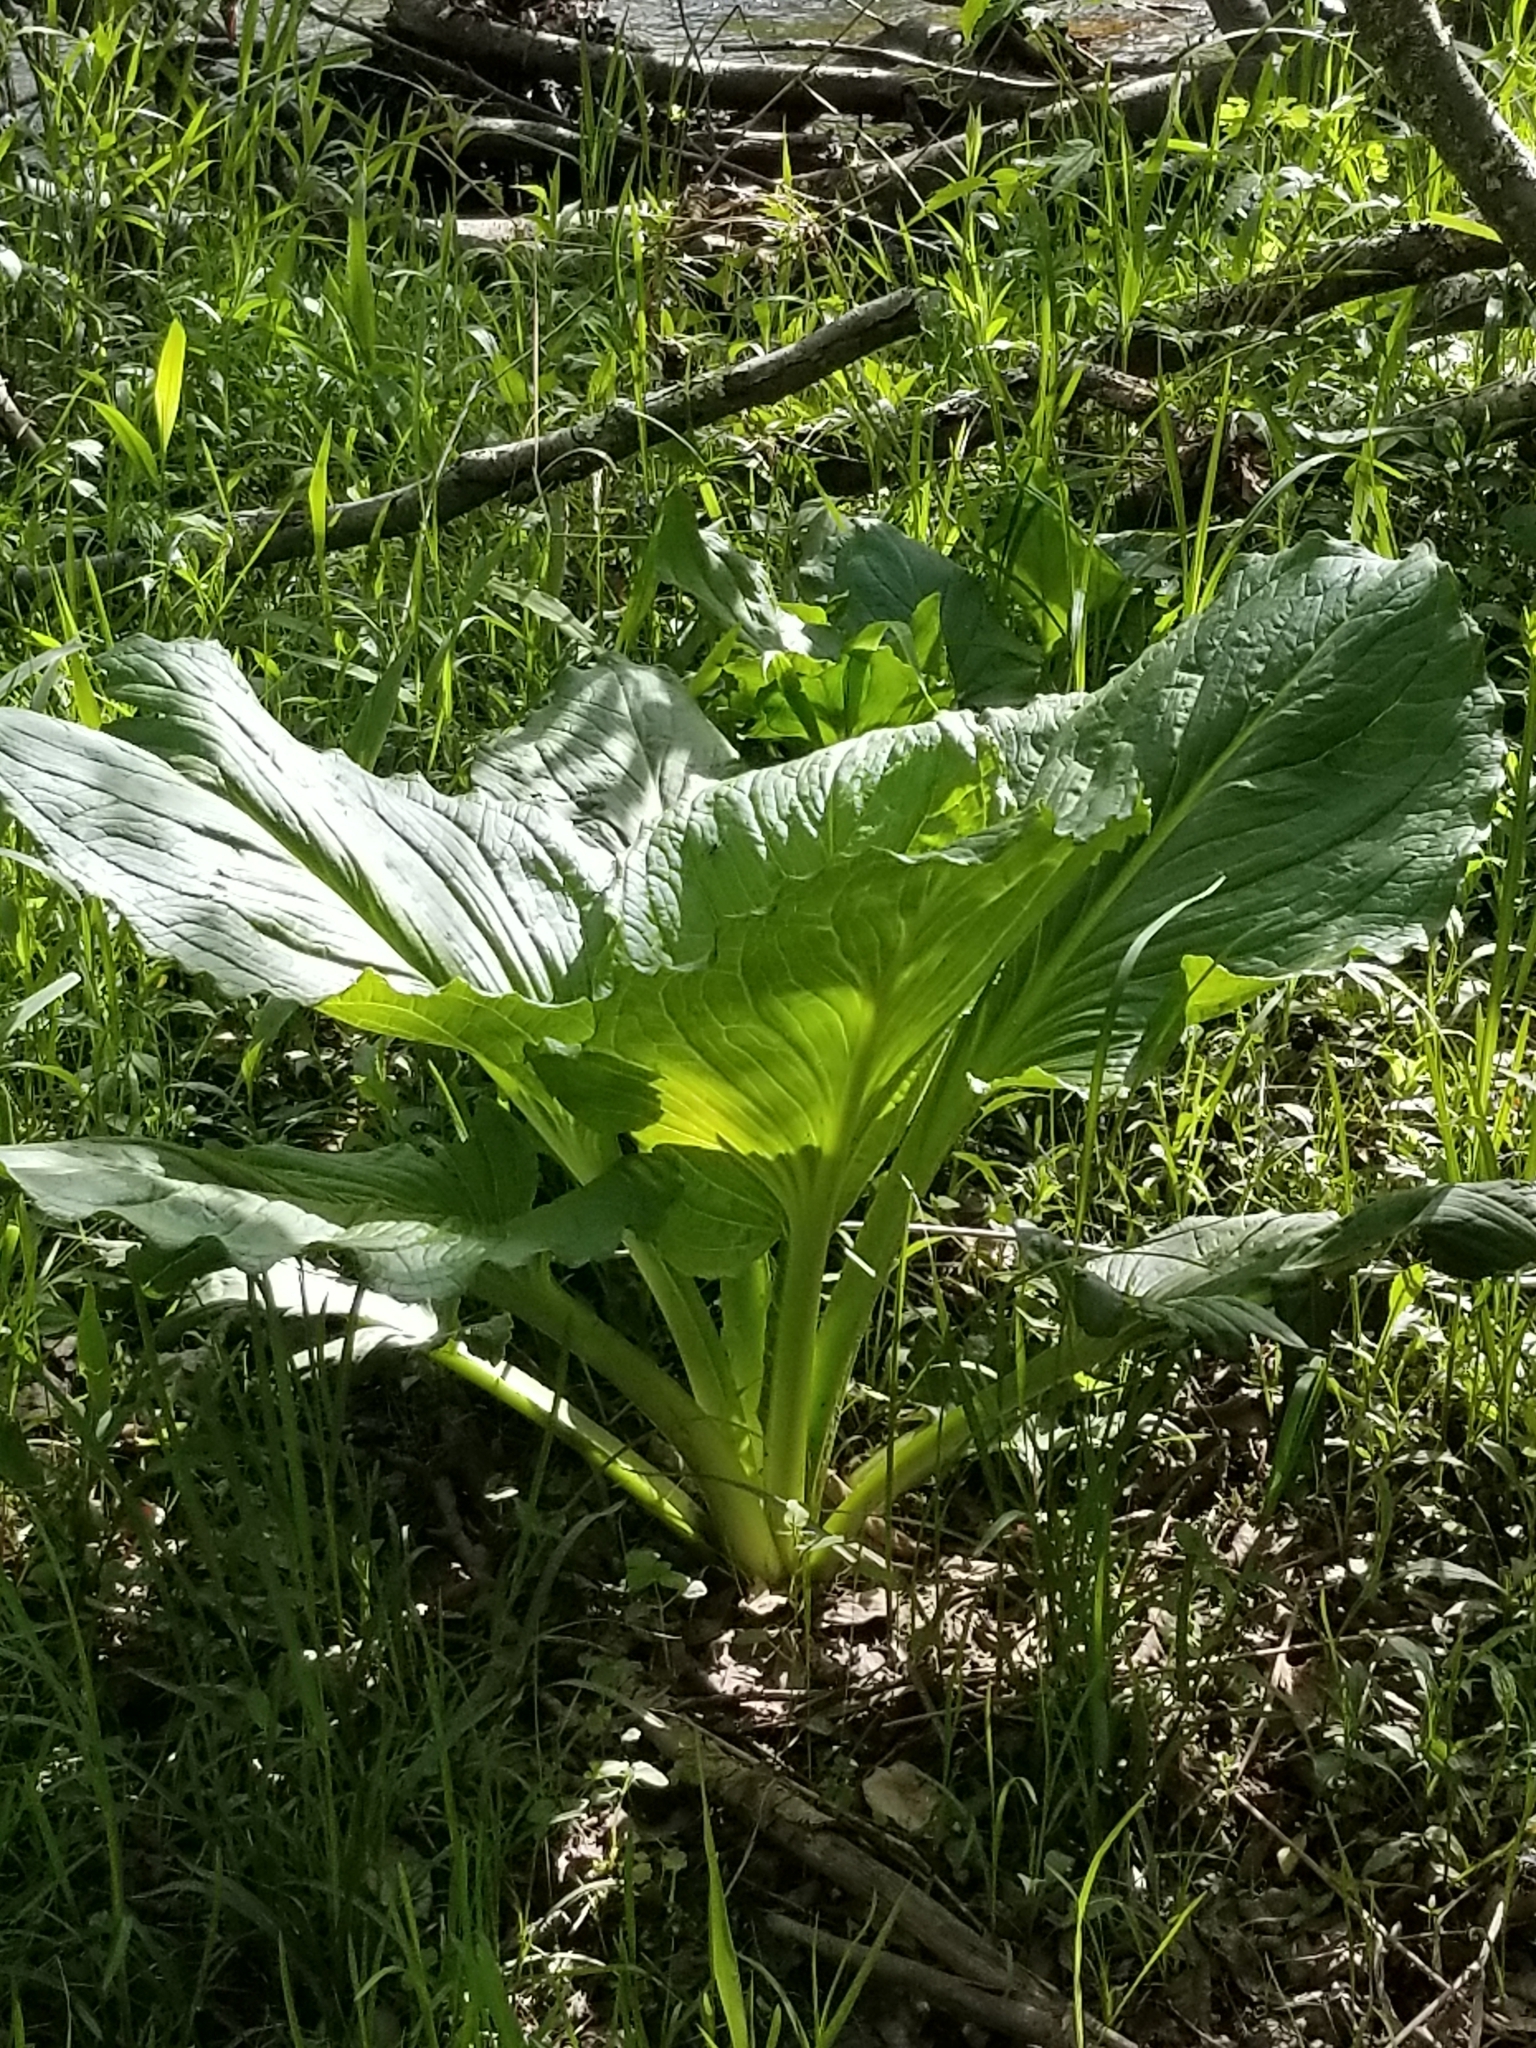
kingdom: Plantae
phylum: Tracheophyta
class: Liliopsida
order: Alismatales
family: Araceae
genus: Symplocarpus
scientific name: Symplocarpus foetidus
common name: Eastern skunk cabbage
